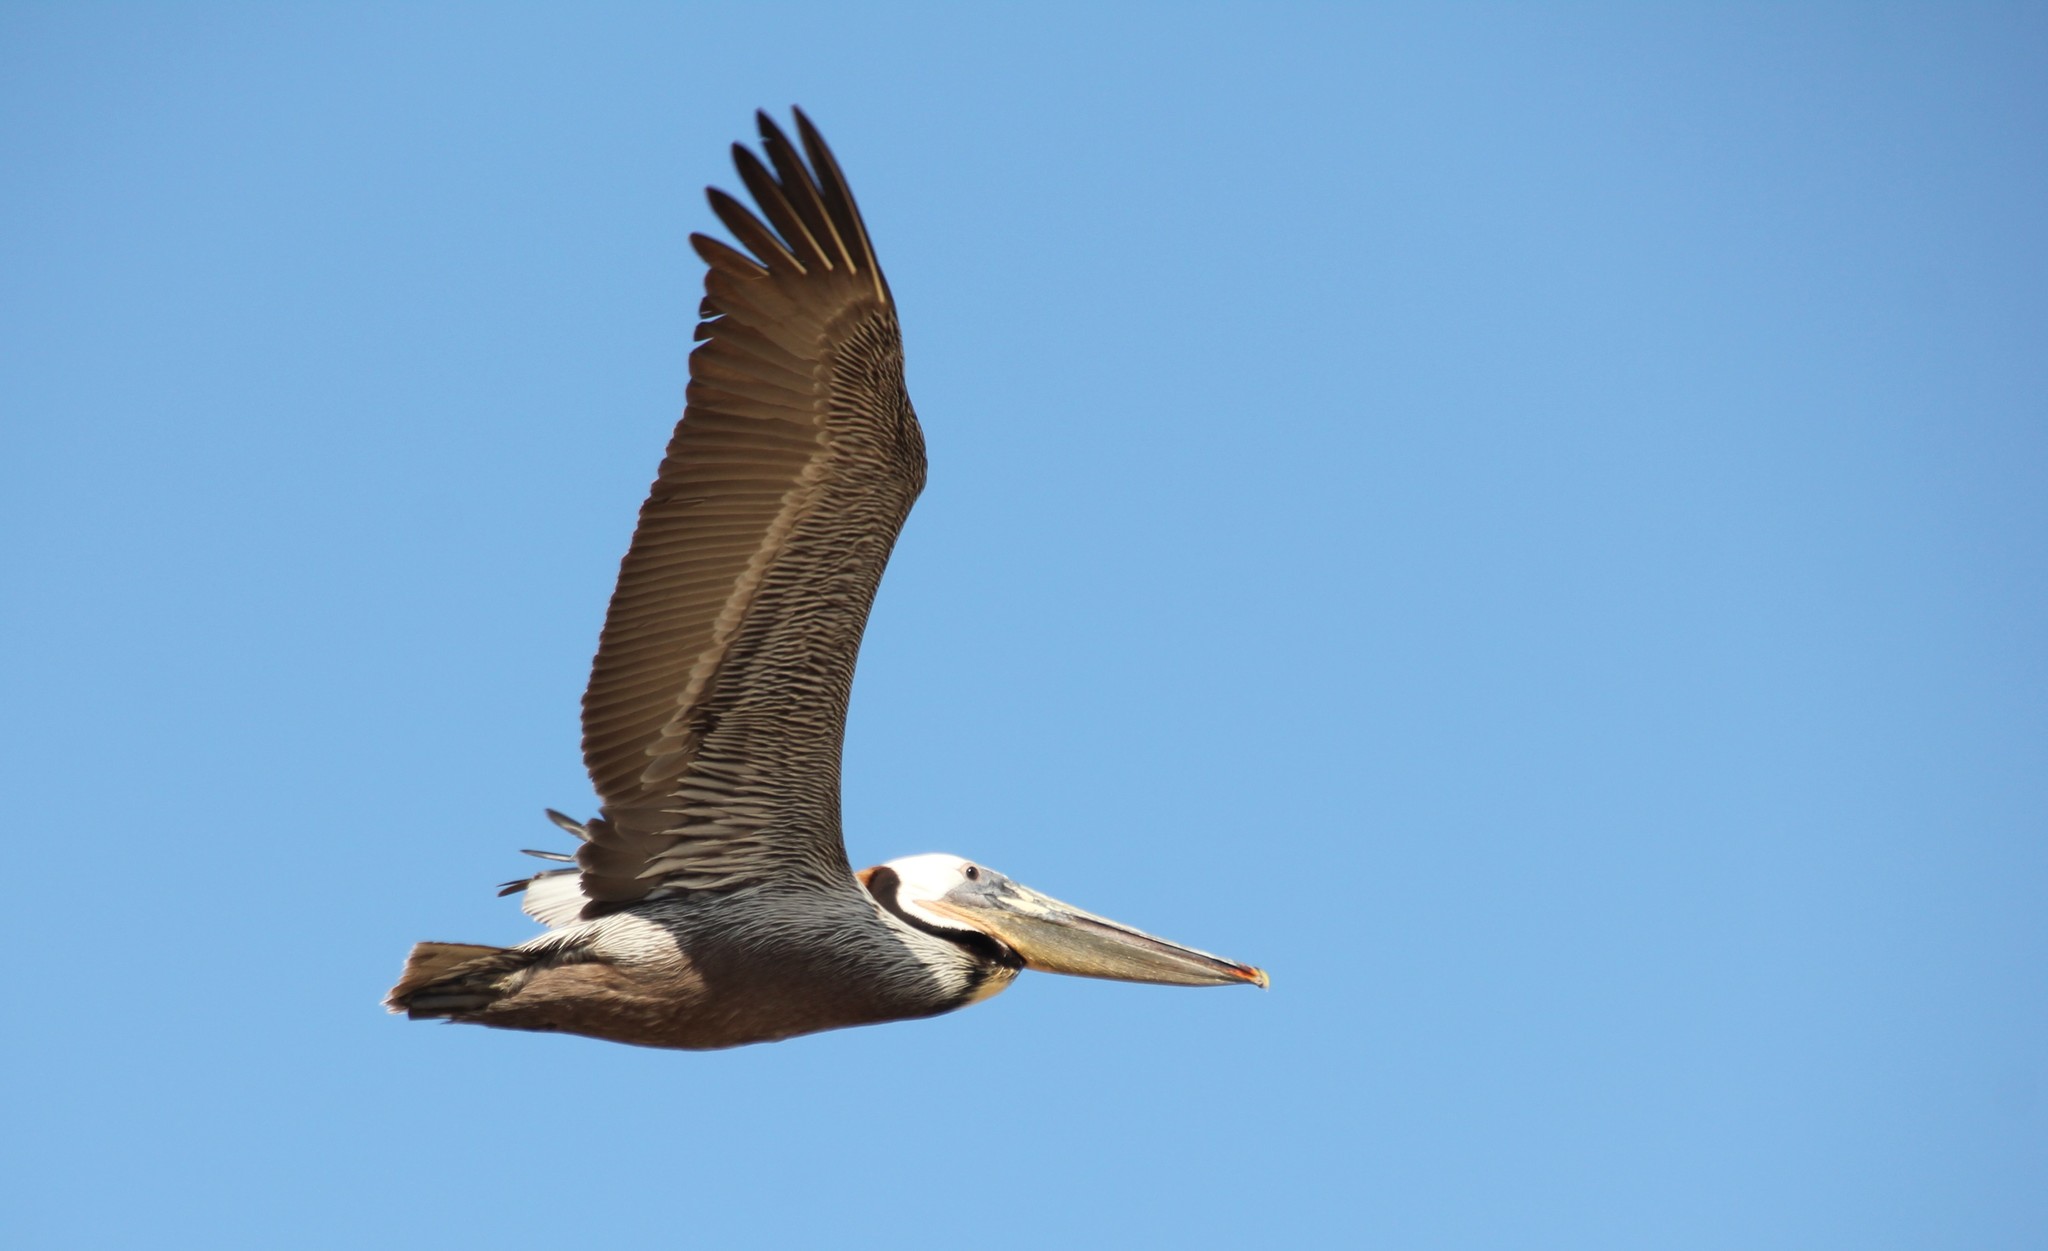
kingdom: Animalia
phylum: Chordata
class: Aves
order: Pelecaniformes
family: Pelecanidae
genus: Pelecanus
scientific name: Pelecanus occidentalis
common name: Brown pelican
